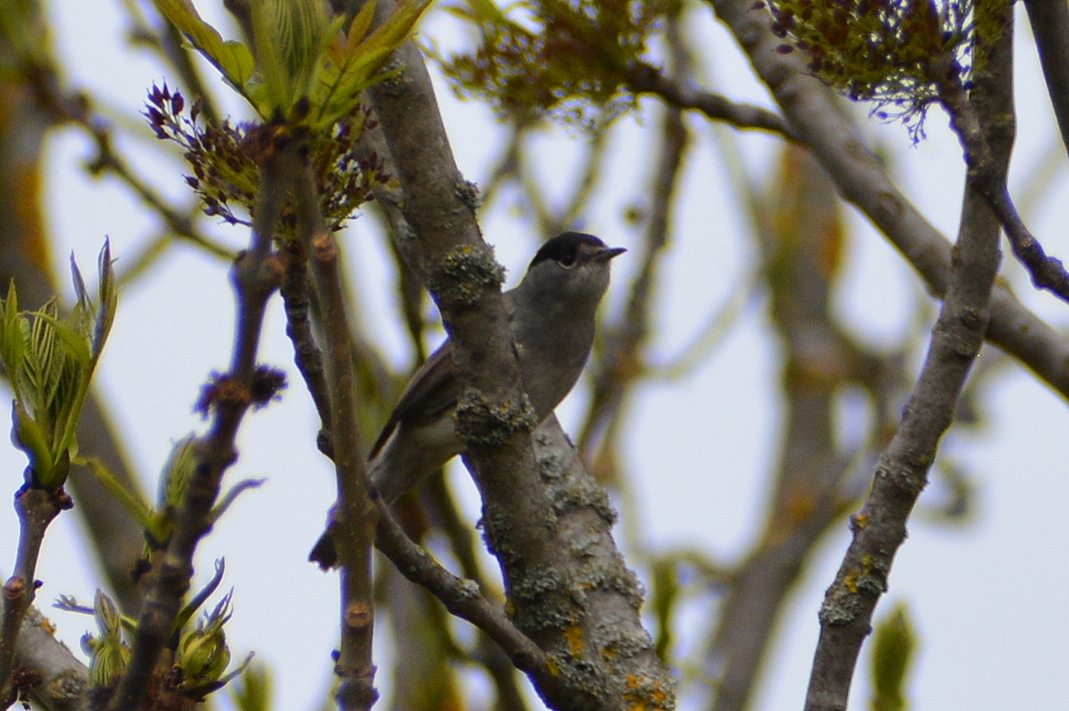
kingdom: Animalia
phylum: Chordata
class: Aves
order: Passeriformes
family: Sylviidae
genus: Sylvia
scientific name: Sylvia atricapilla
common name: Eurasian blackcap
